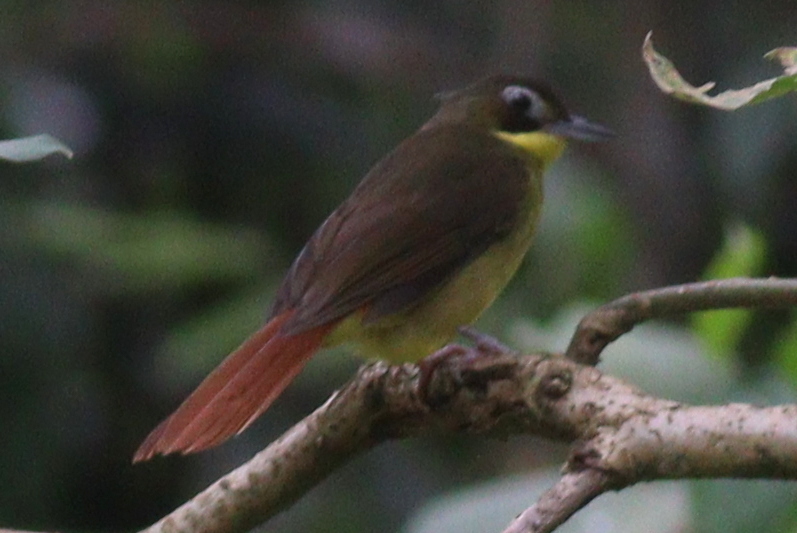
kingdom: Animalia
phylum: Chordata
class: Aves
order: Passeriformes
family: Pycnonotidae
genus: Bleda
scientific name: Bleda syndactylus
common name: Red-tailed bristlebill
